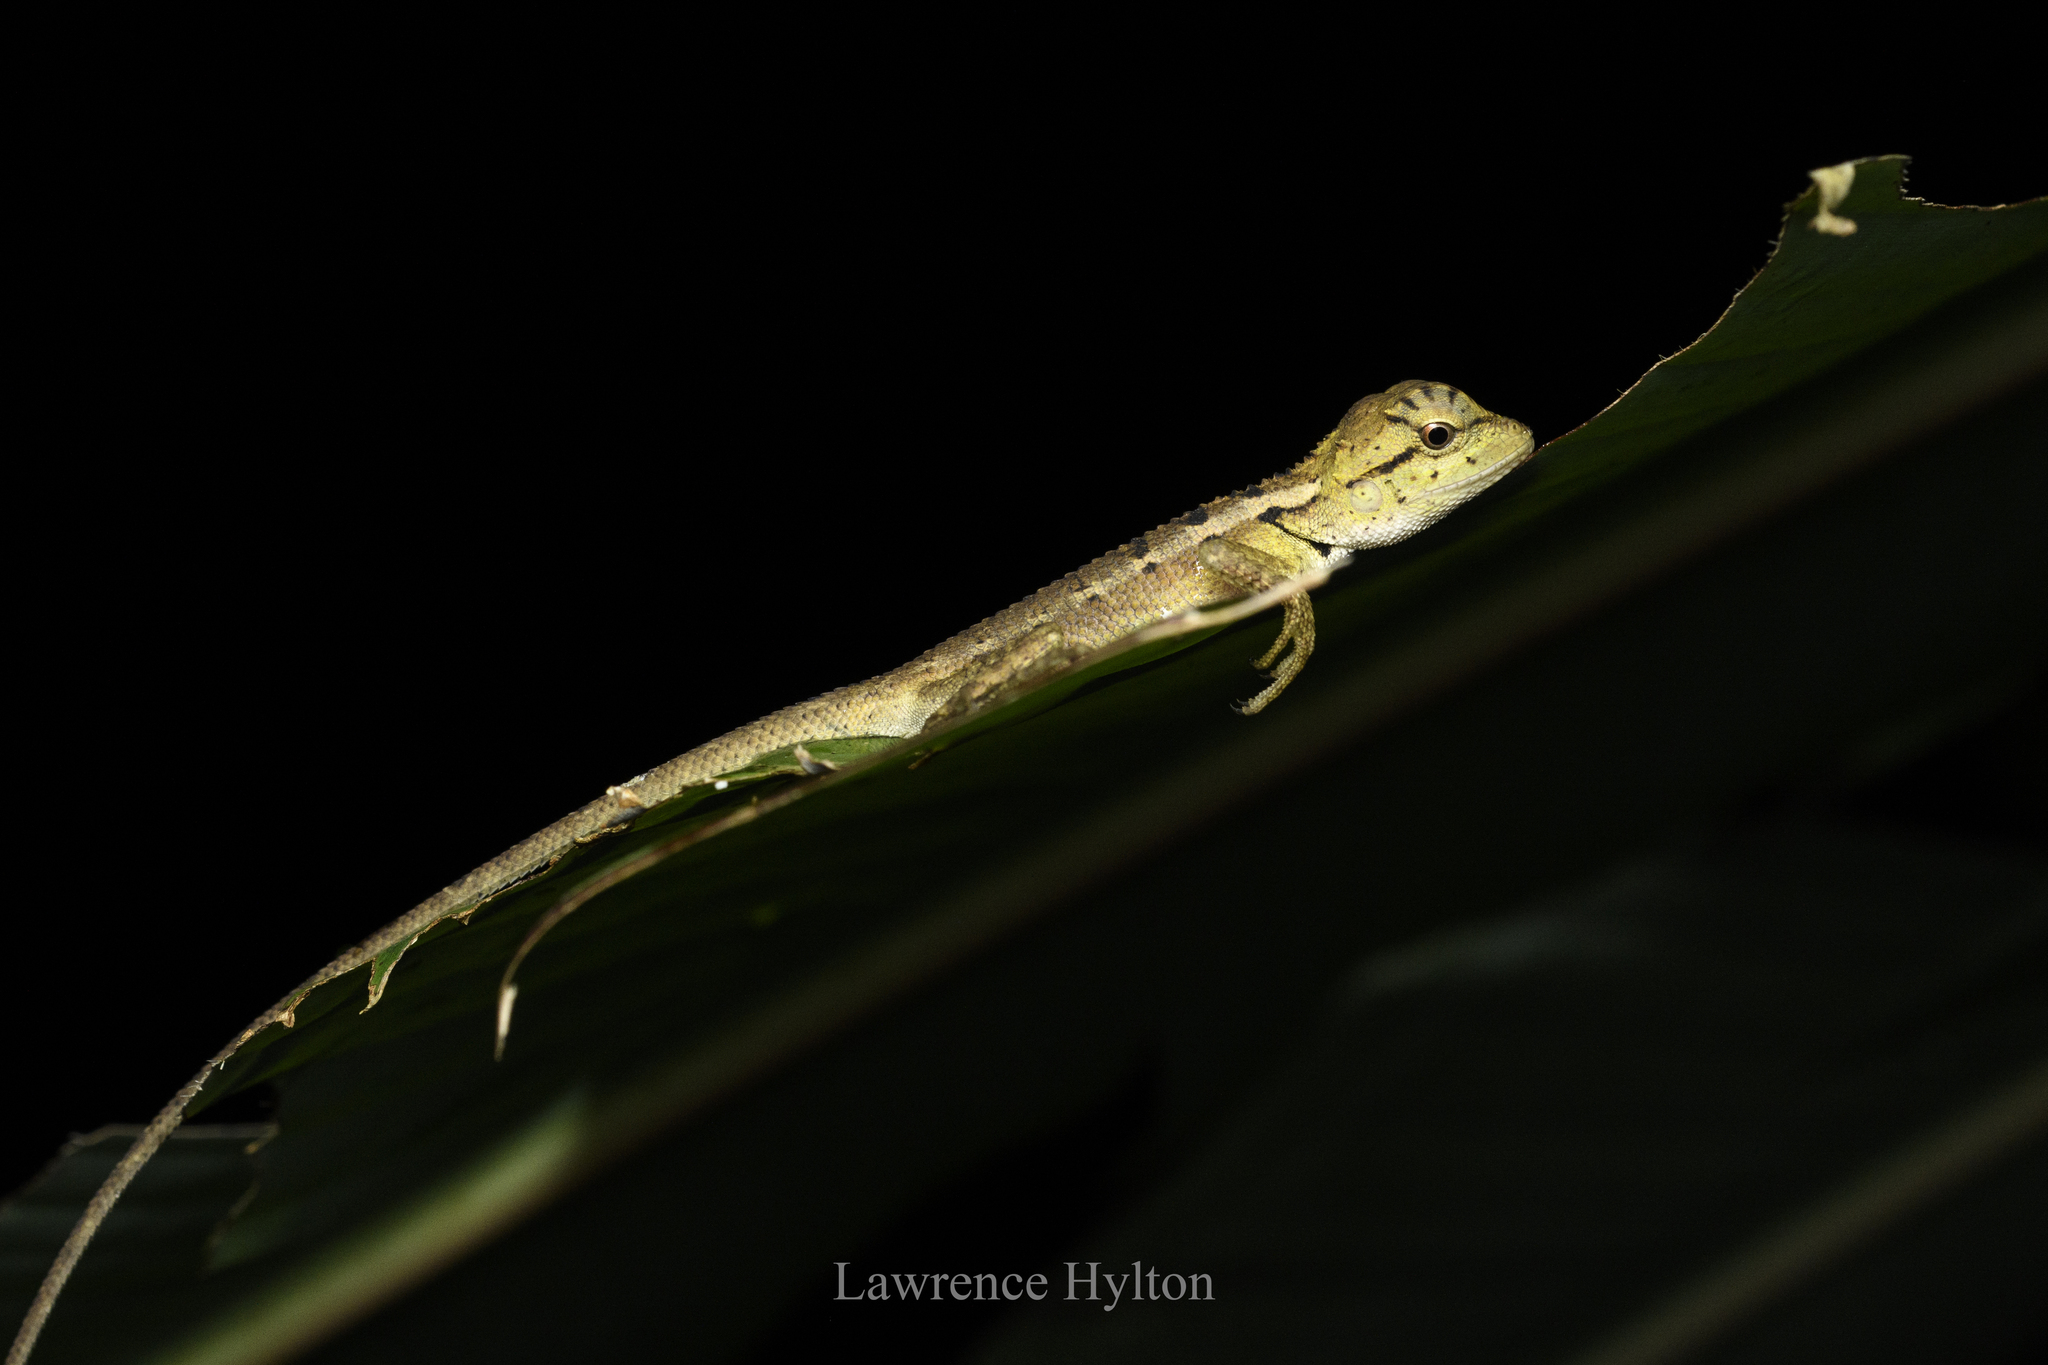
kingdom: Animalia
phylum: Chordata
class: Squamata
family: Agamidae
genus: Calotes
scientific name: Calotes emma
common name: Thailand bloodsucker
